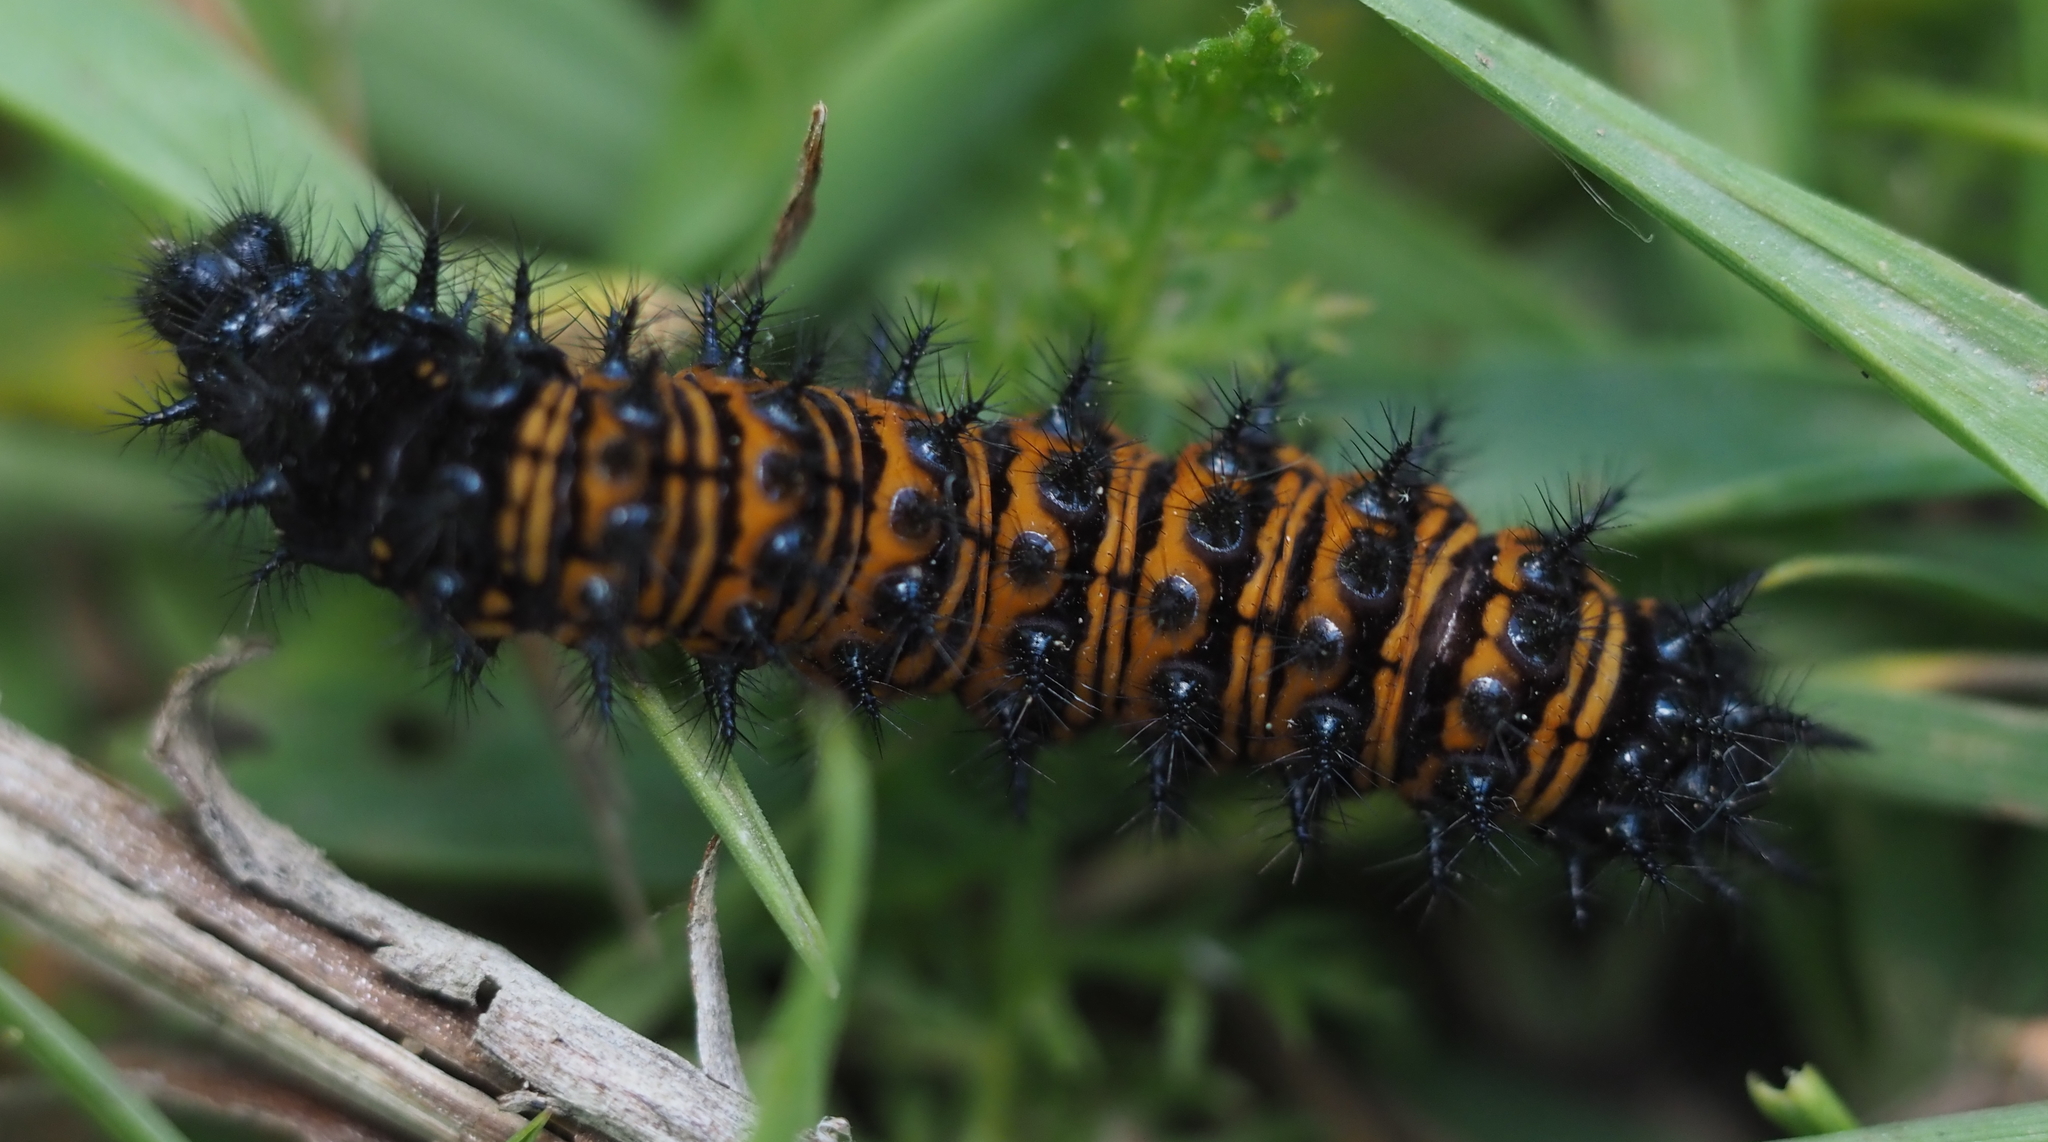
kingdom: Animalia
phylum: Arthropoda
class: Insecta
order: Lepidoptera
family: Nymphalidae
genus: Euphydryas
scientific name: Euphydryas phaeton
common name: Baltimore checkerspot
